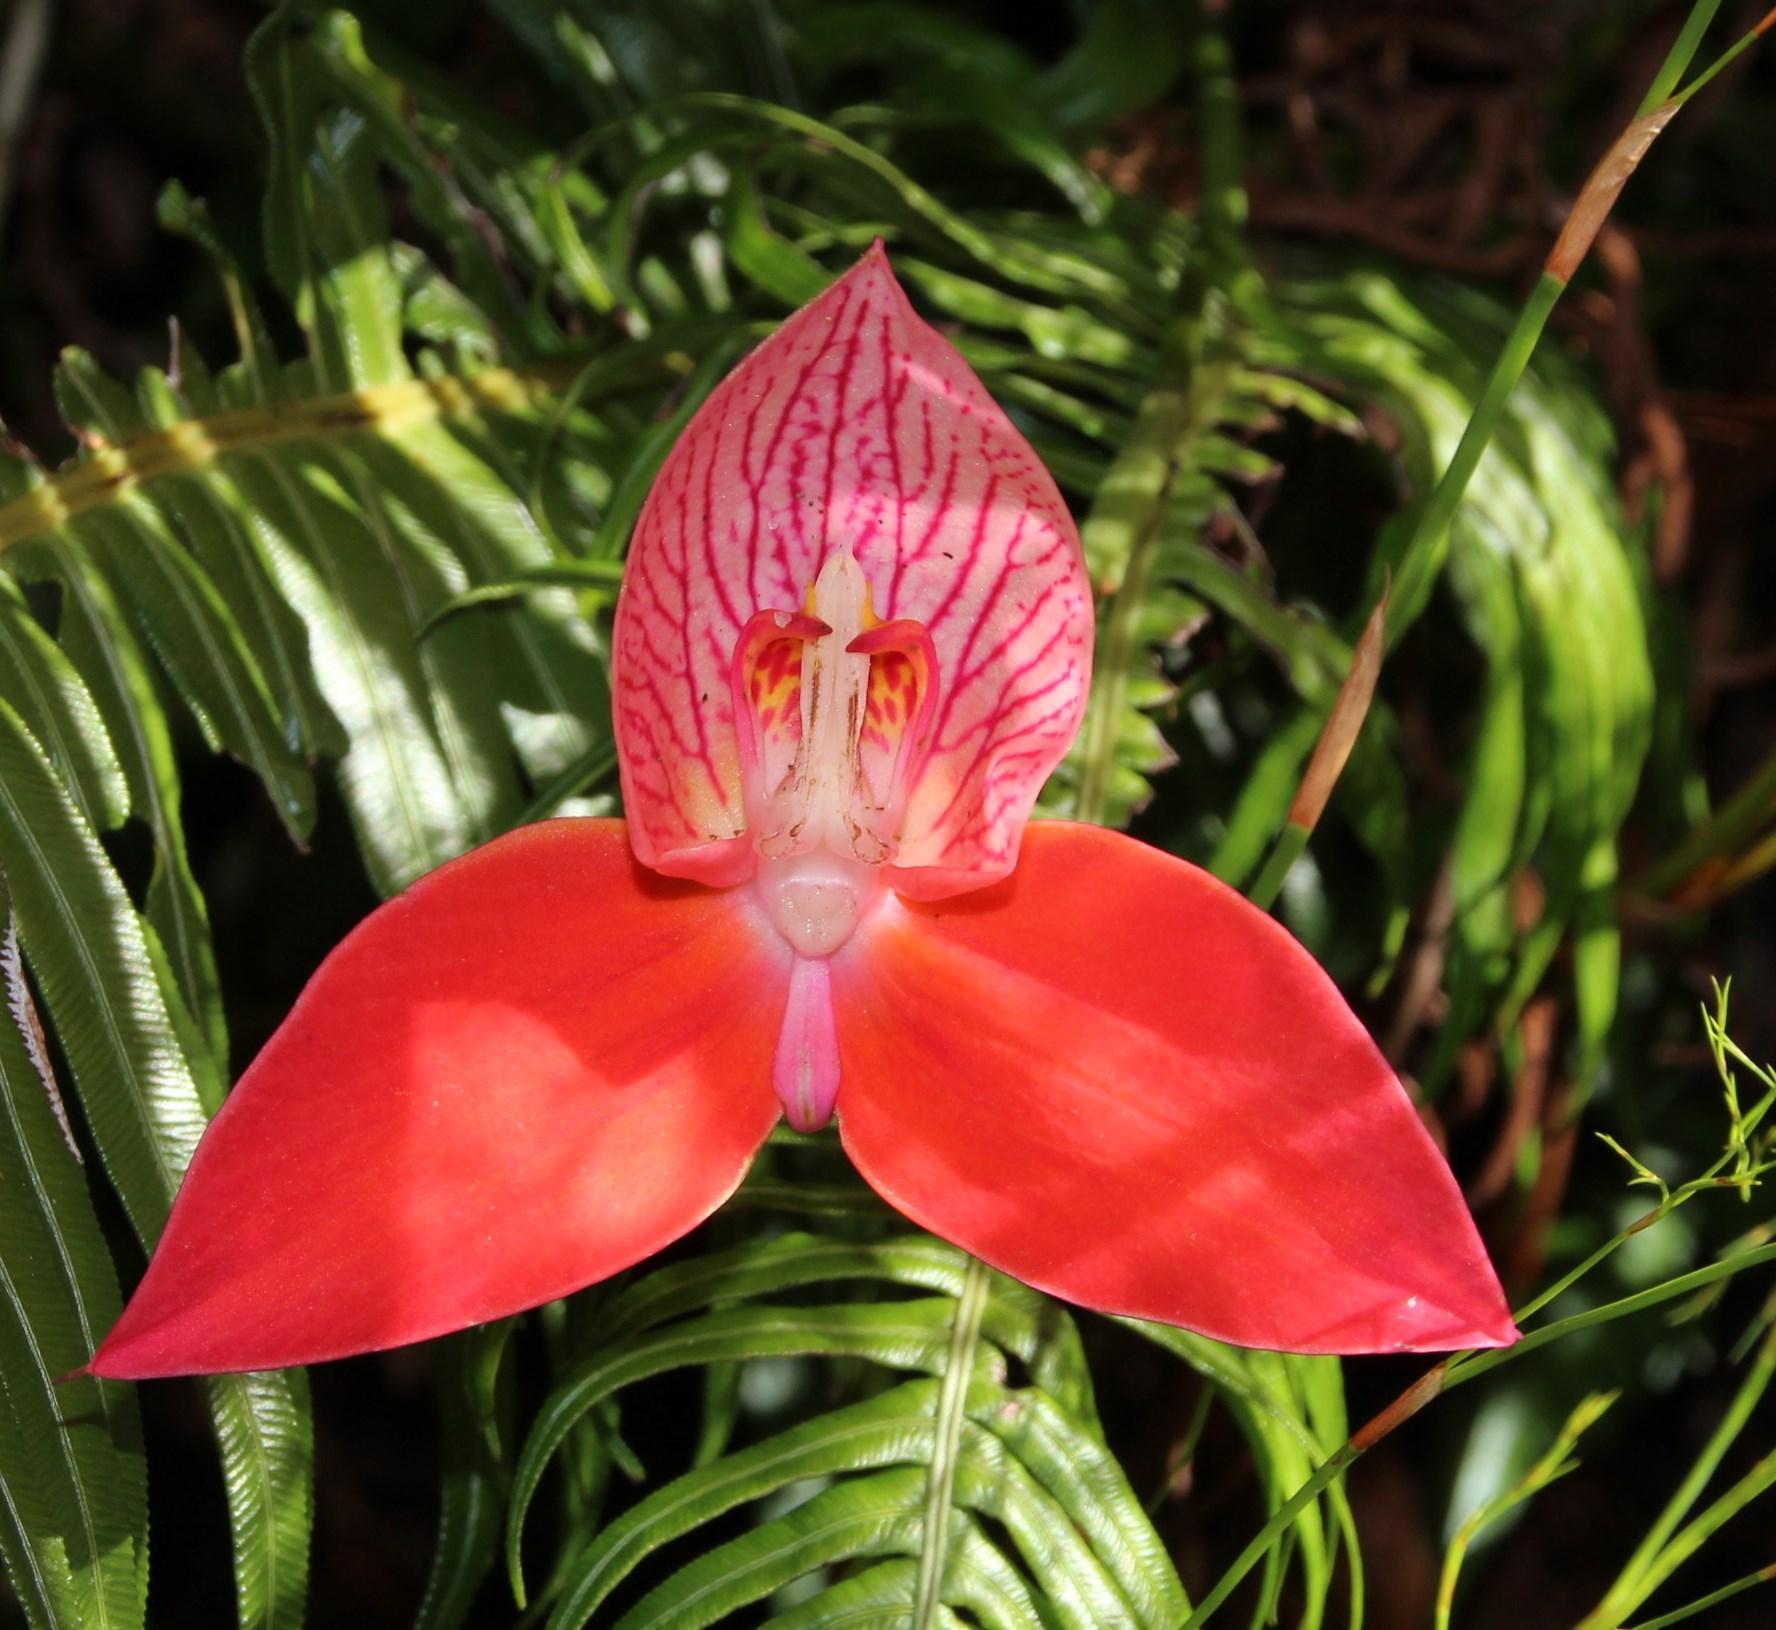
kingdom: Plantae
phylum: Tracheophyta
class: Liliopsida
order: Asparagales
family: Orchidaceae
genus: Disa
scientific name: Disa uniflora
